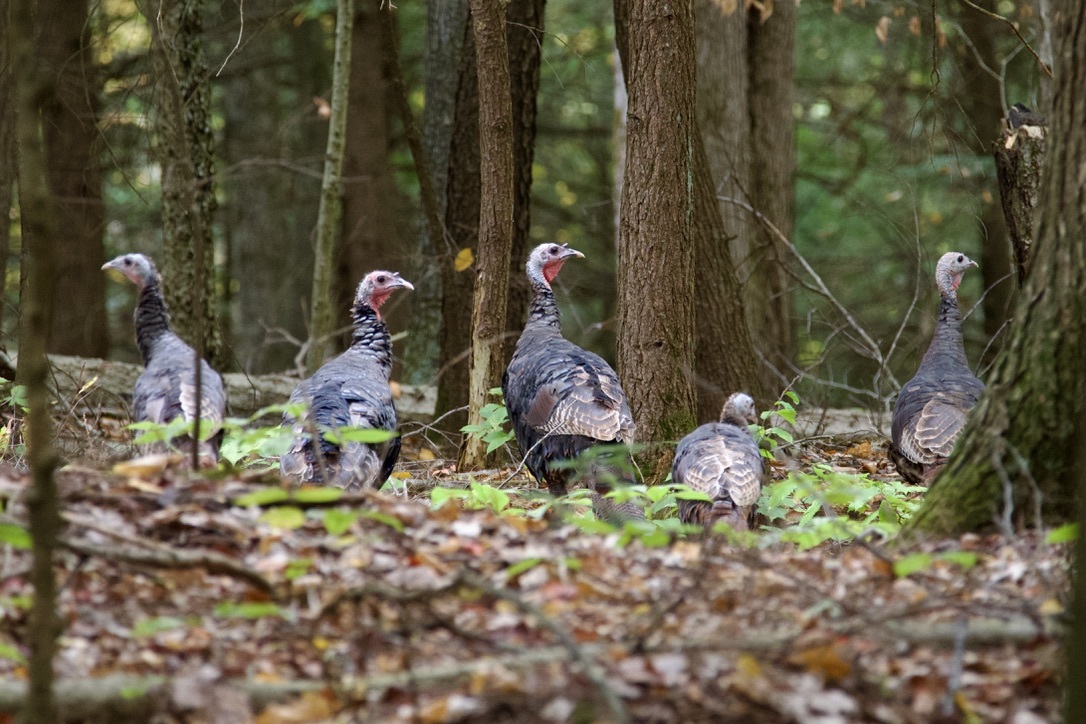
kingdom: Animalia
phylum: Chordata
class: Aves
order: Galliformes
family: Phasianidae
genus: Meleagris
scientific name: Meleagris gallopavo
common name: Wild turkey
